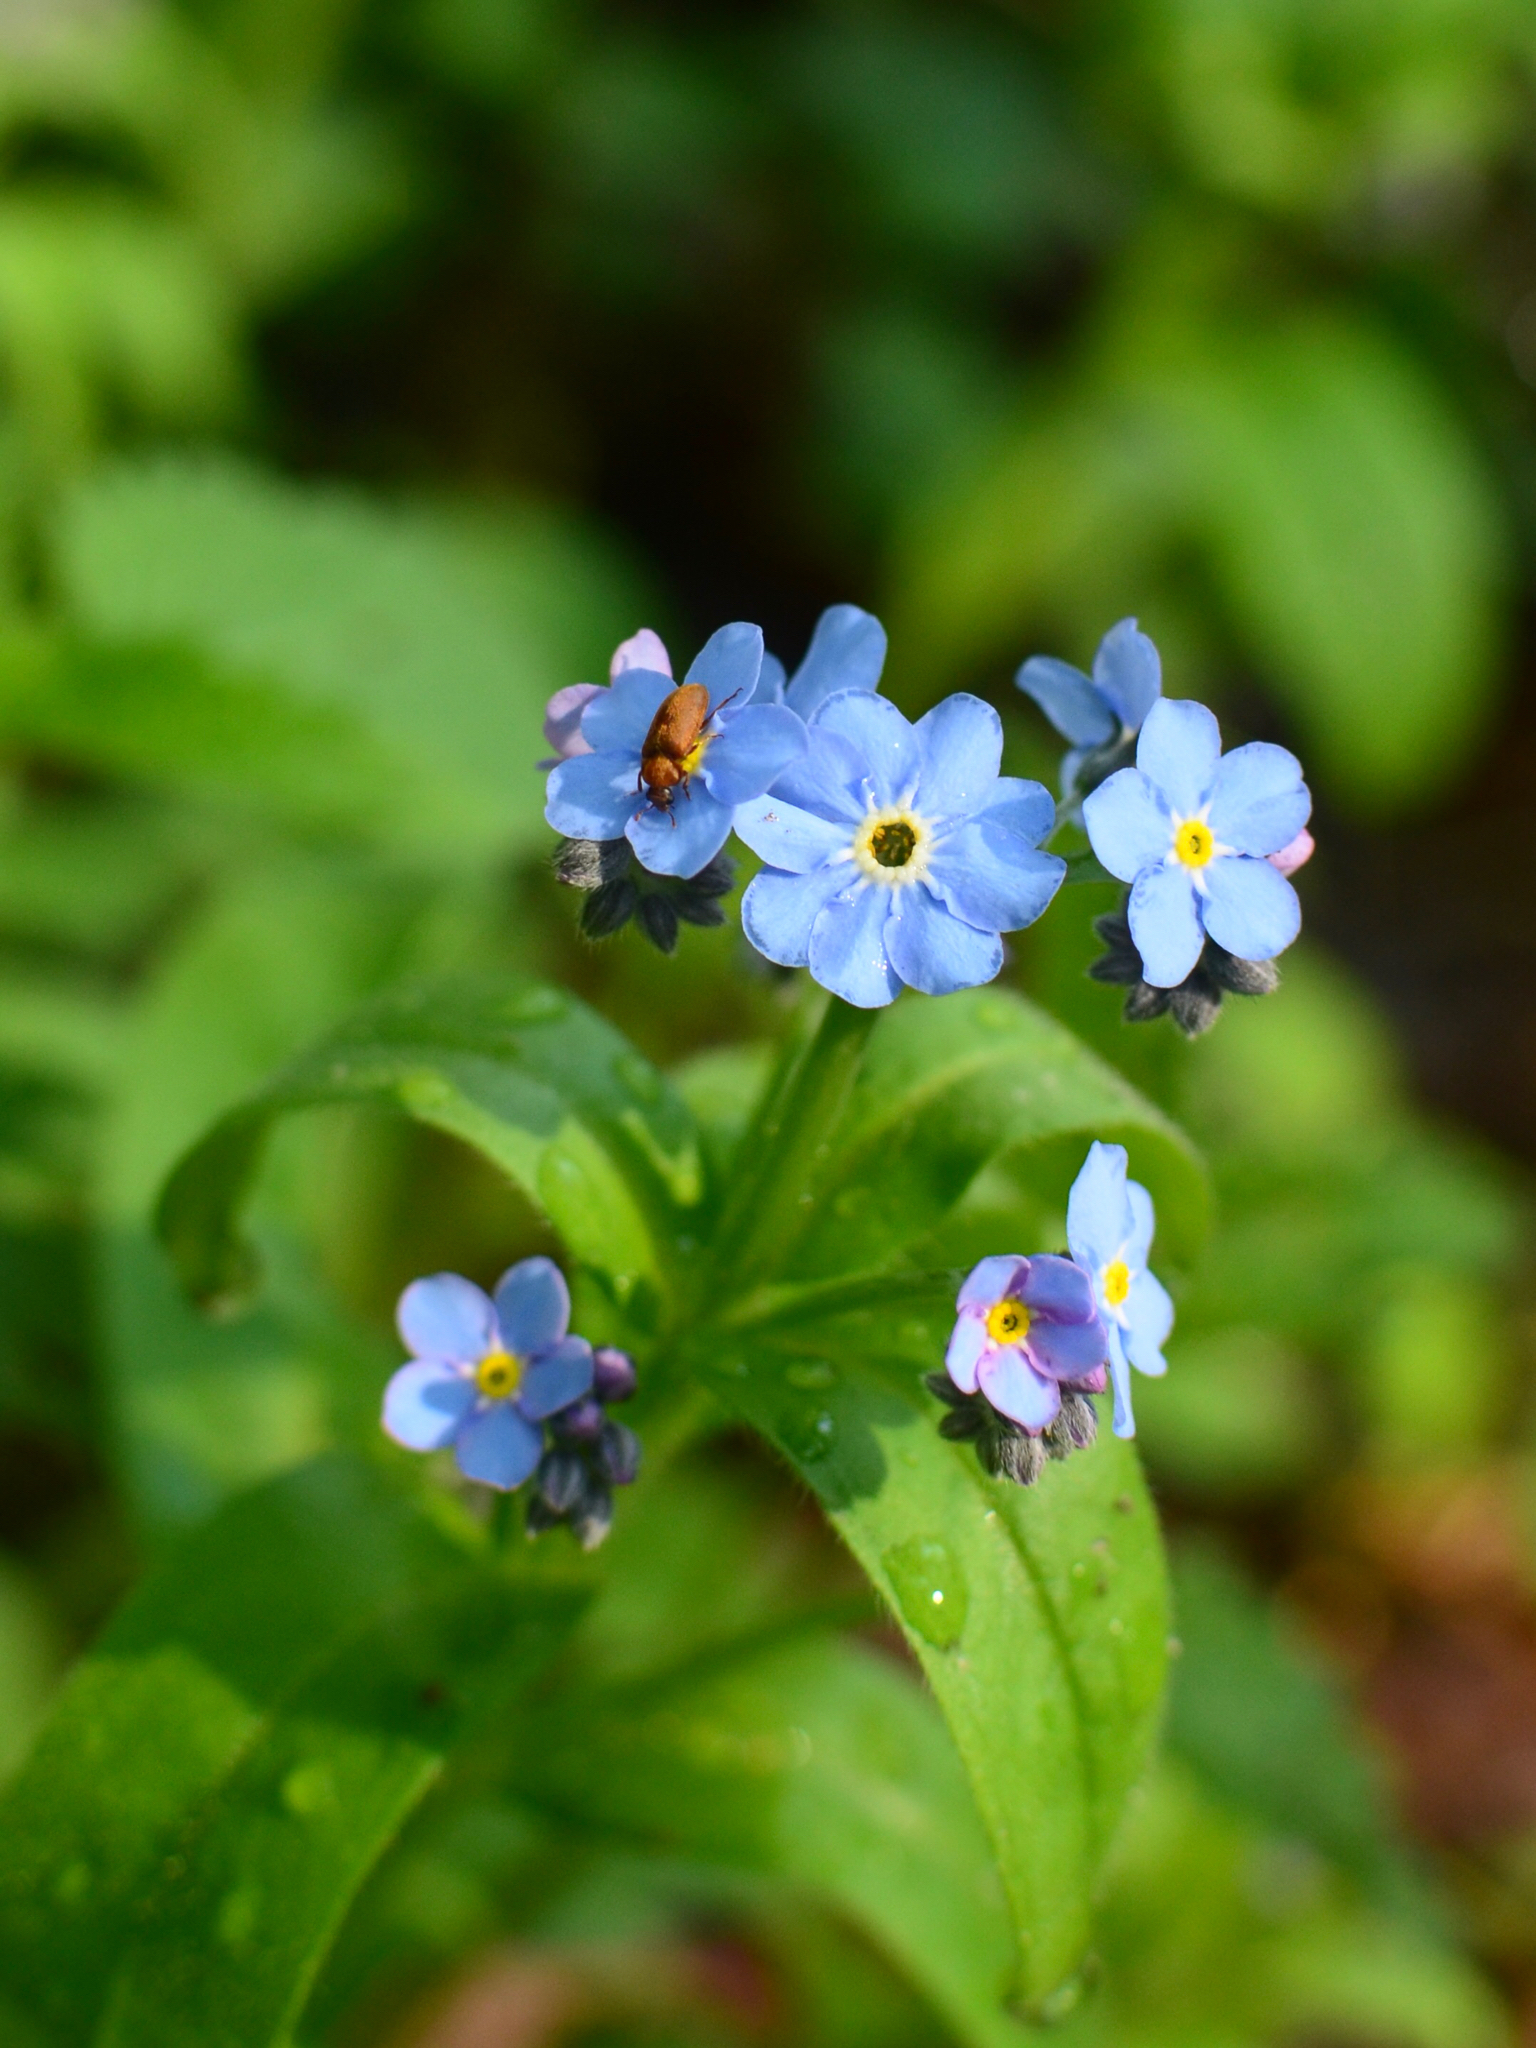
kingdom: Plantae
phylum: Tracheophyta
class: Magnoliopsida
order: Boraginales
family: Boraginaceae
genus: Myosotis
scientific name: Myosotis sylvatica
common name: Wood forget-me-not
